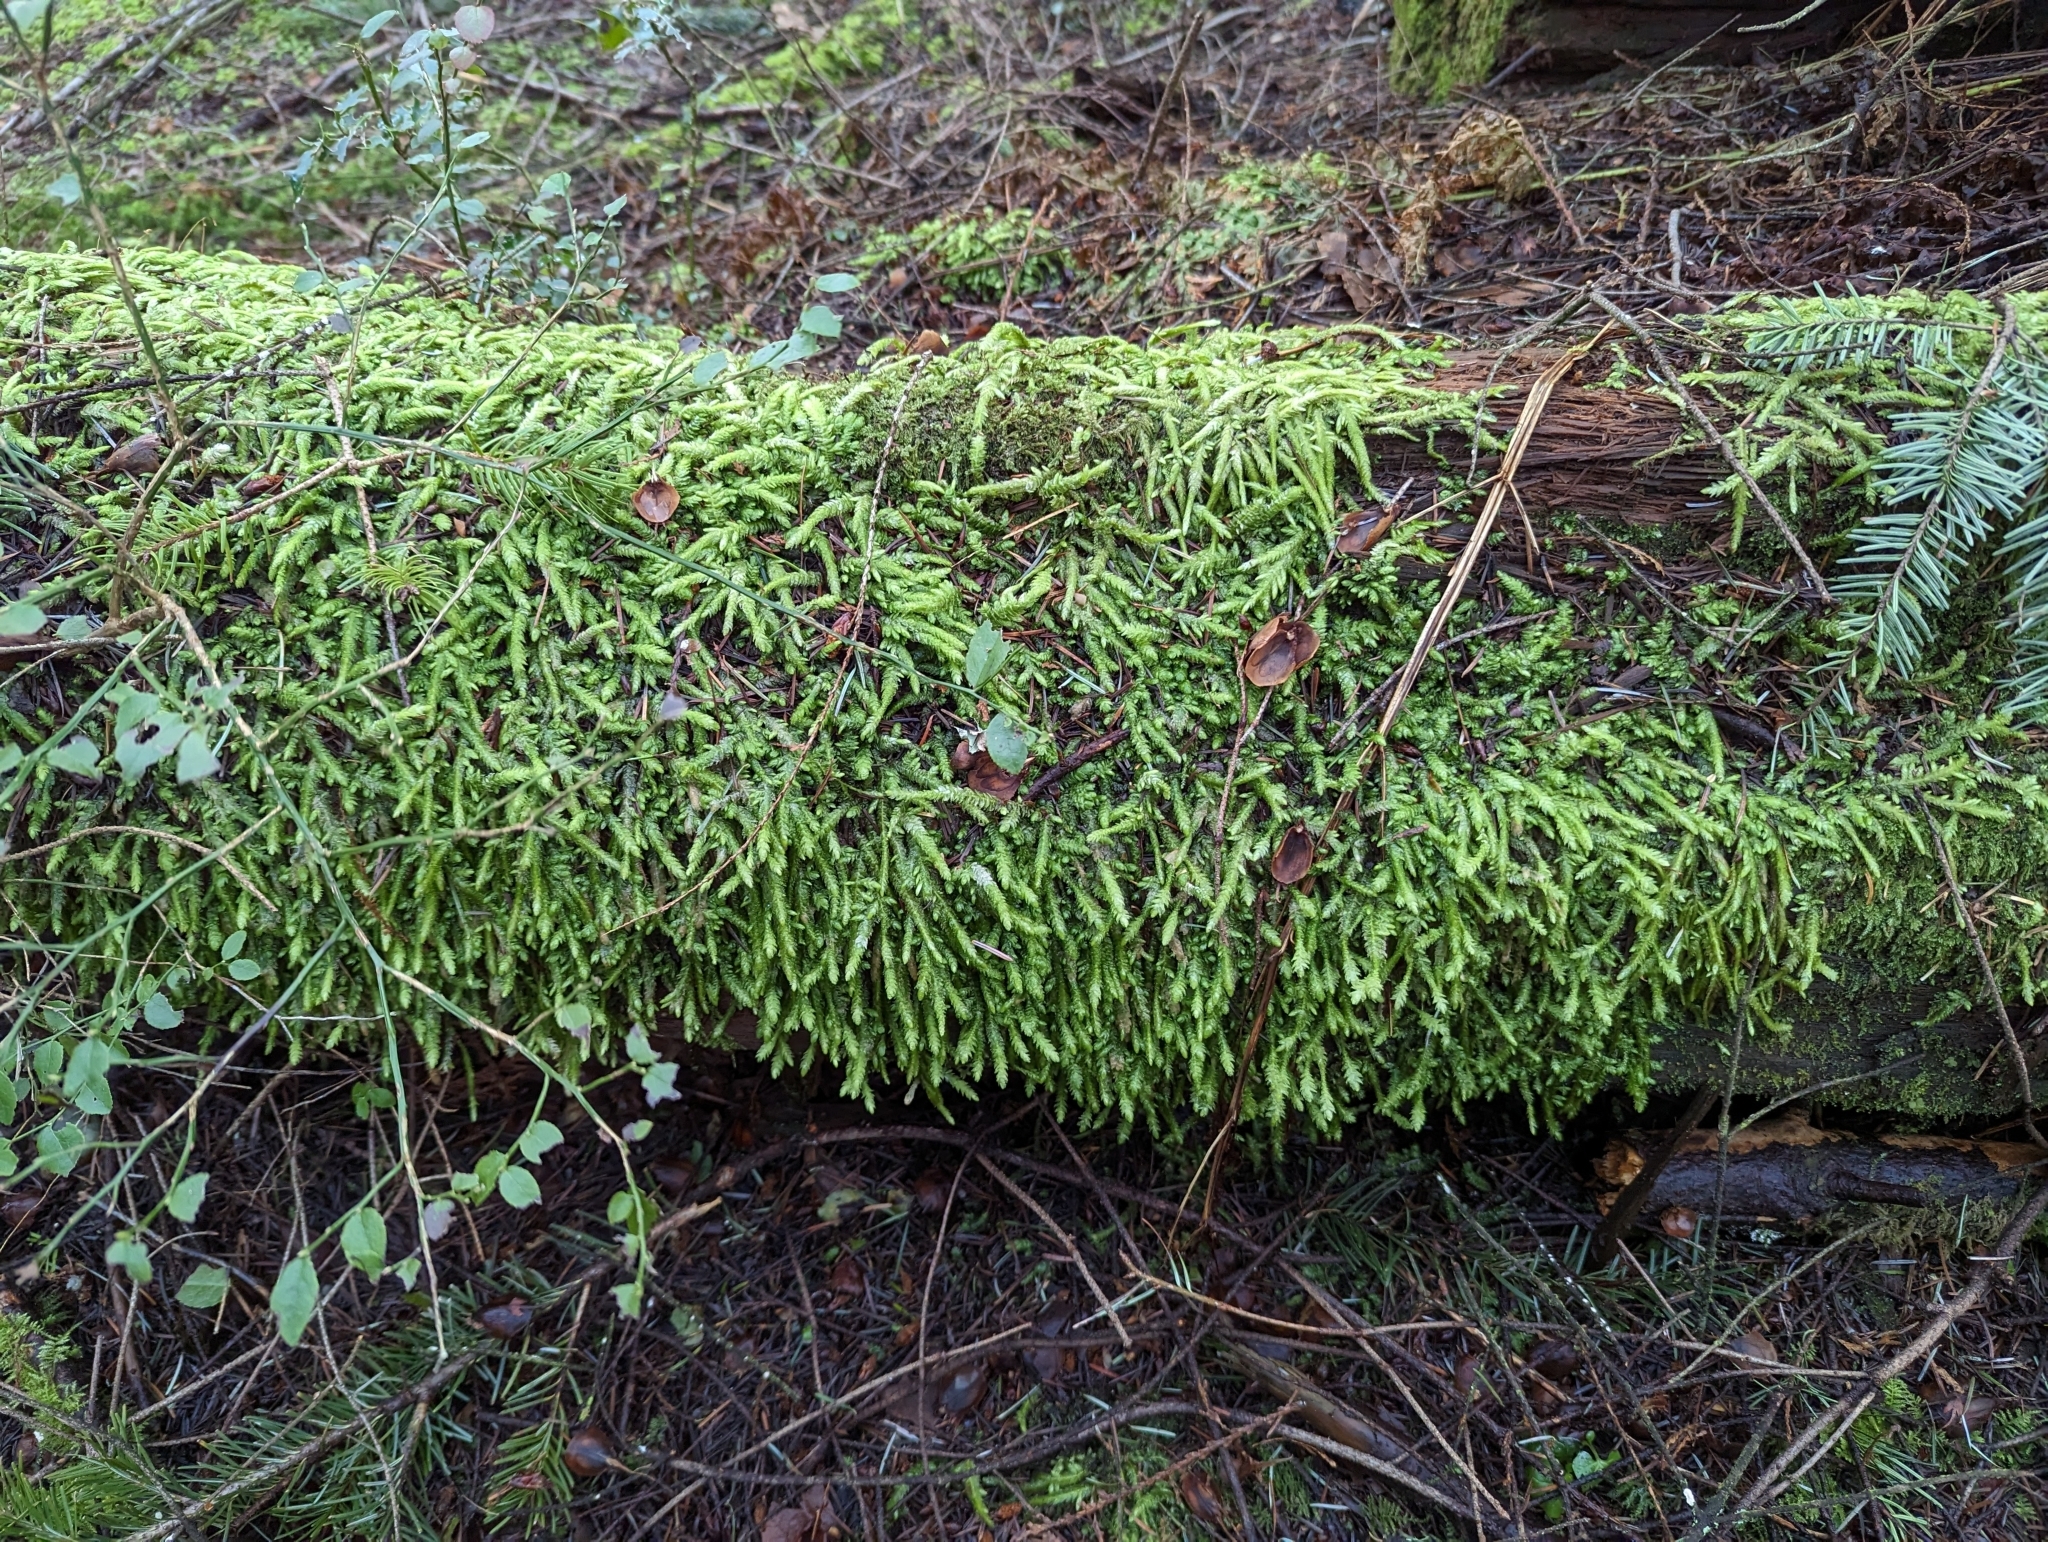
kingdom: Plantae
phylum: Bryophyta
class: Bryopsida
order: Hypnales
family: Plagiotheciaceae
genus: Plagiothecium
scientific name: Plagiothecium undulatum
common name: Waved silk-moss
